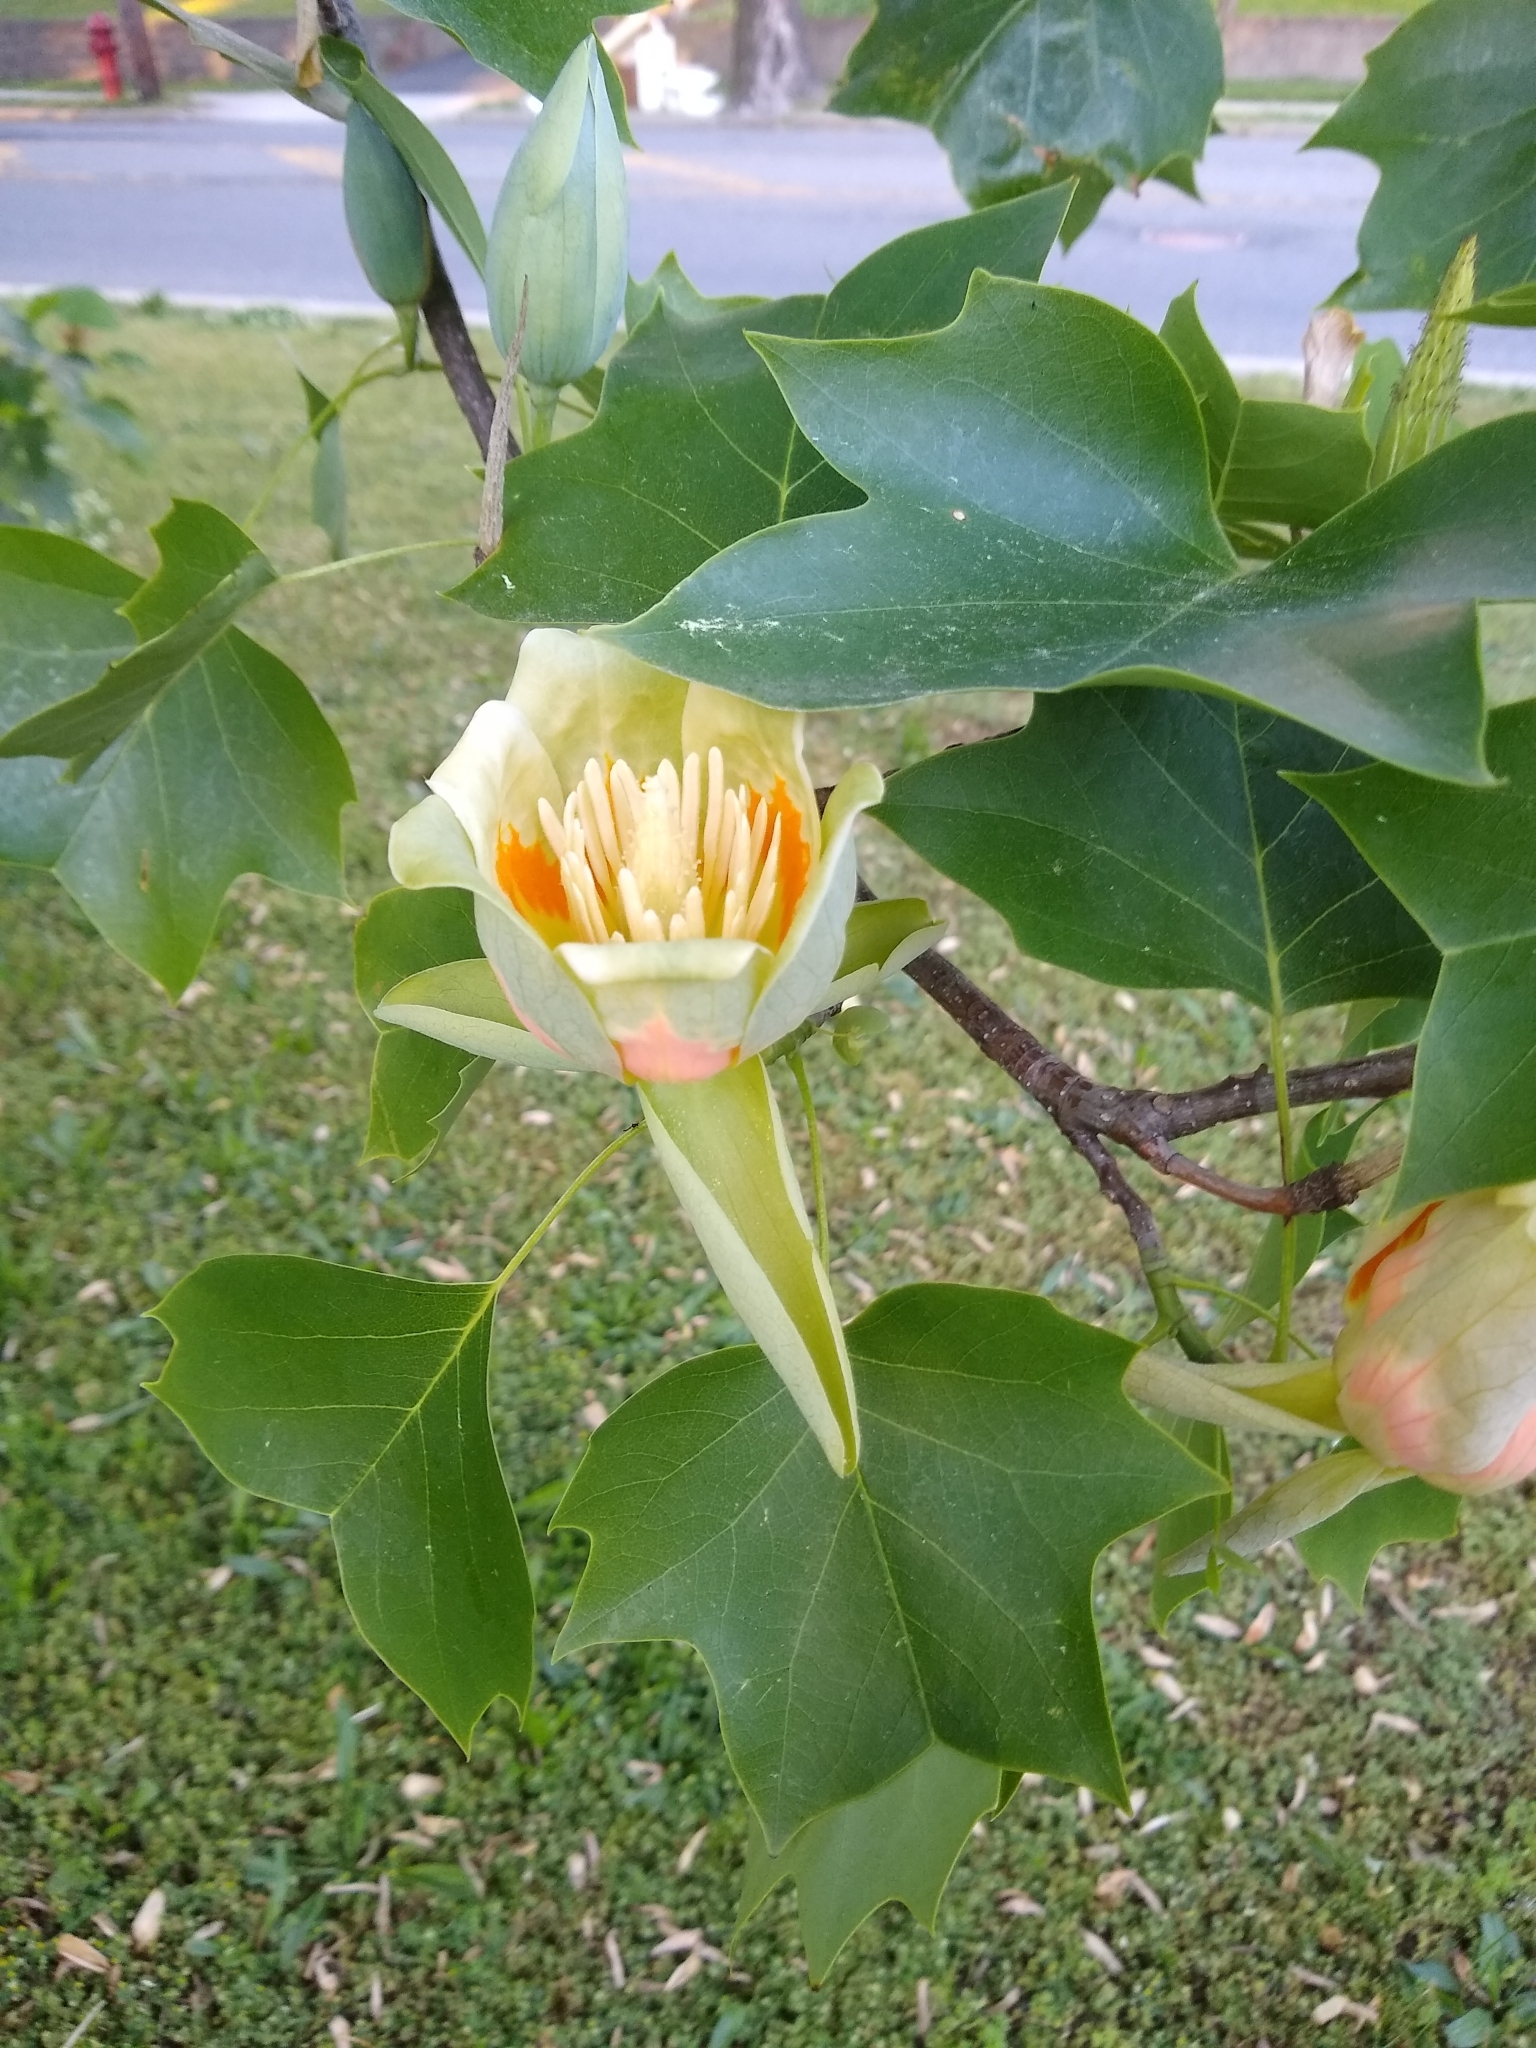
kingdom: Plantae
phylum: Tracheophyta
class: Magnoliopsida
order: Magnoliales
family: Magnoliaceae
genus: Liriodendron
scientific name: Liriodendron tulipifera
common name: Tulip tree
